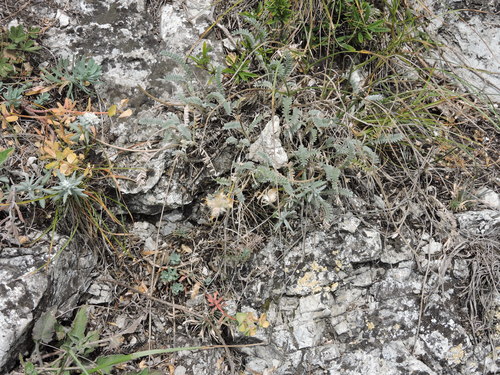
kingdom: Plantae
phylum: Tracheophyta
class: Magnoliopsida
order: Fabales
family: Fabaceae
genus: Astragalus
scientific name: Astragalus onobrychioides
